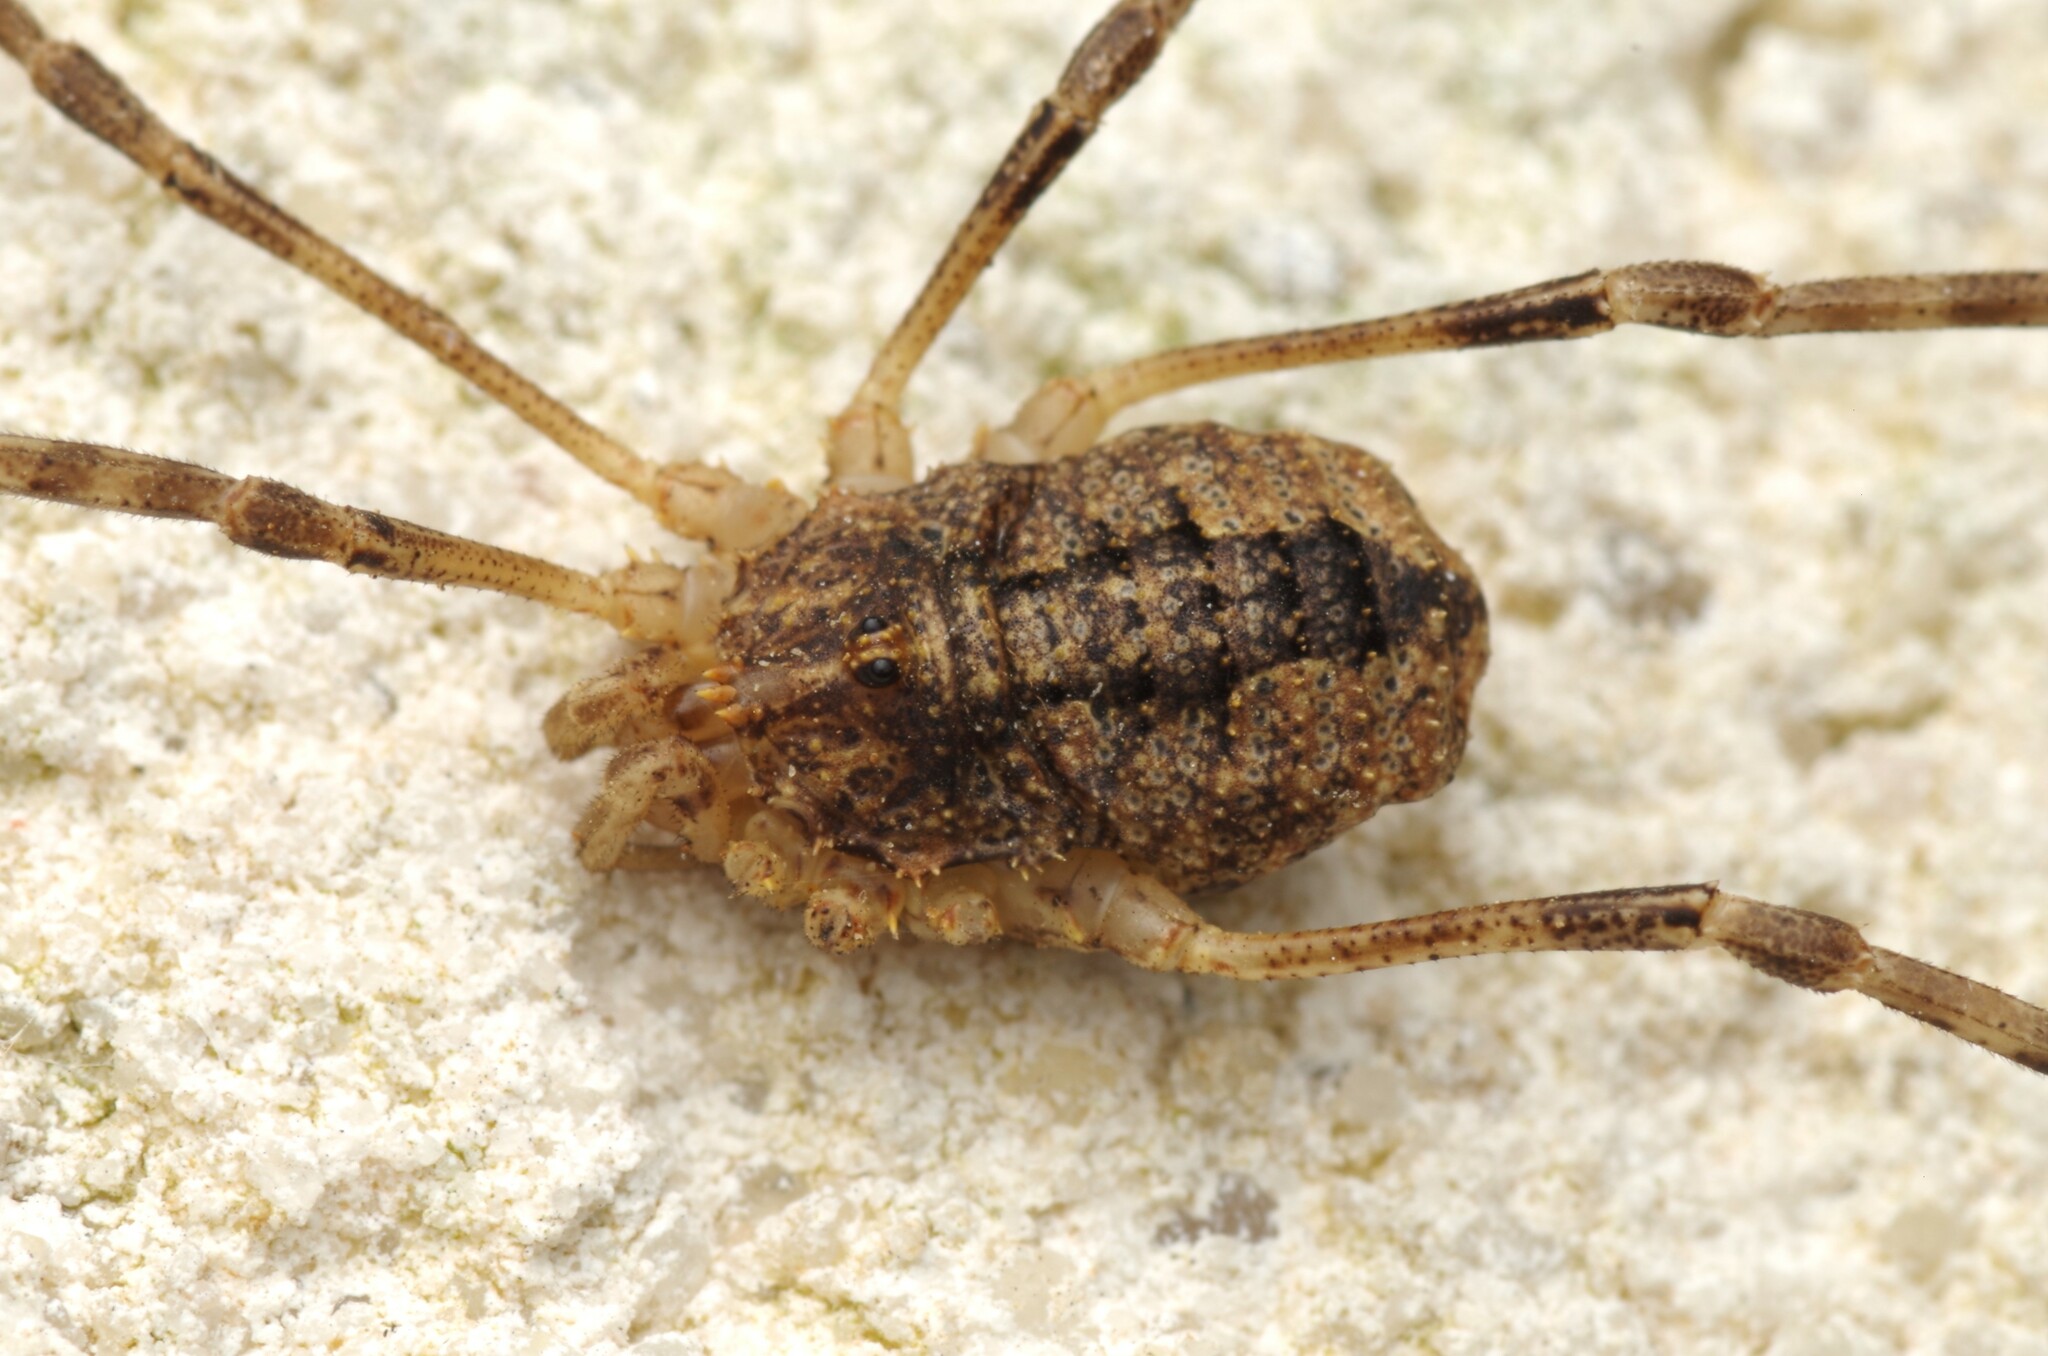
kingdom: Animalia
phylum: Arthropoda
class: Arachnida
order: Opiliones
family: Phalangiidae
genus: Odiellus
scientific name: Odiellus spinosus
